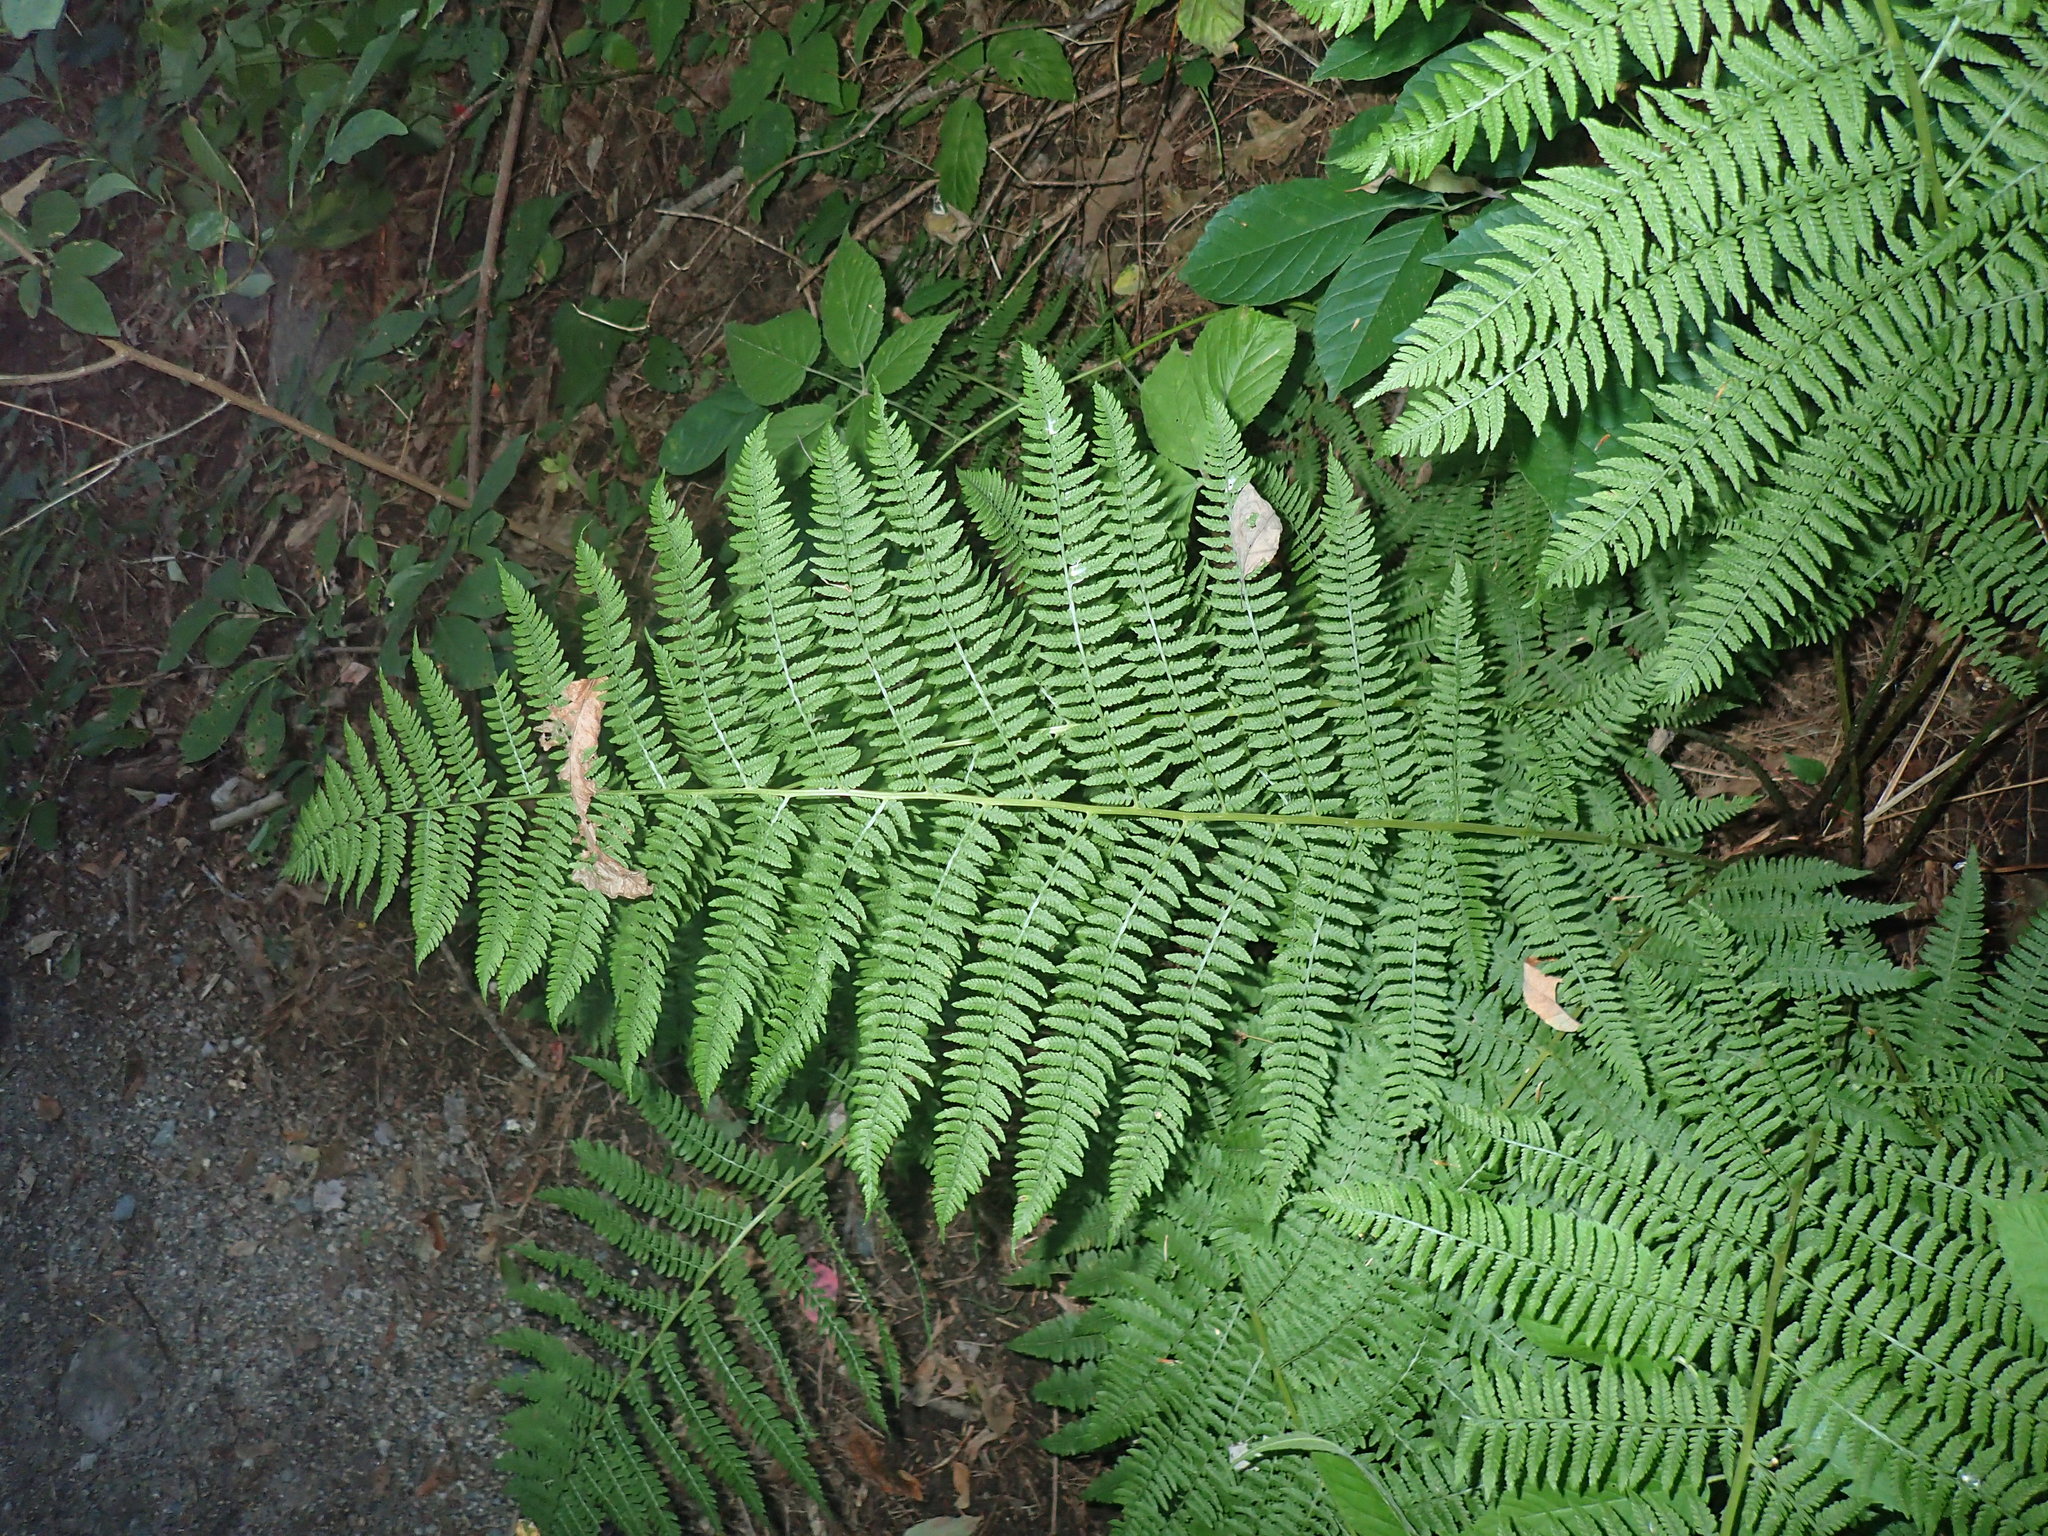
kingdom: Plantae
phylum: Tracheophyta
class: Polypodiopsida
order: Polypodiales
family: Athyriaceae
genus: Athyrium
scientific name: Athyrium angustum
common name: Northern lady fern
